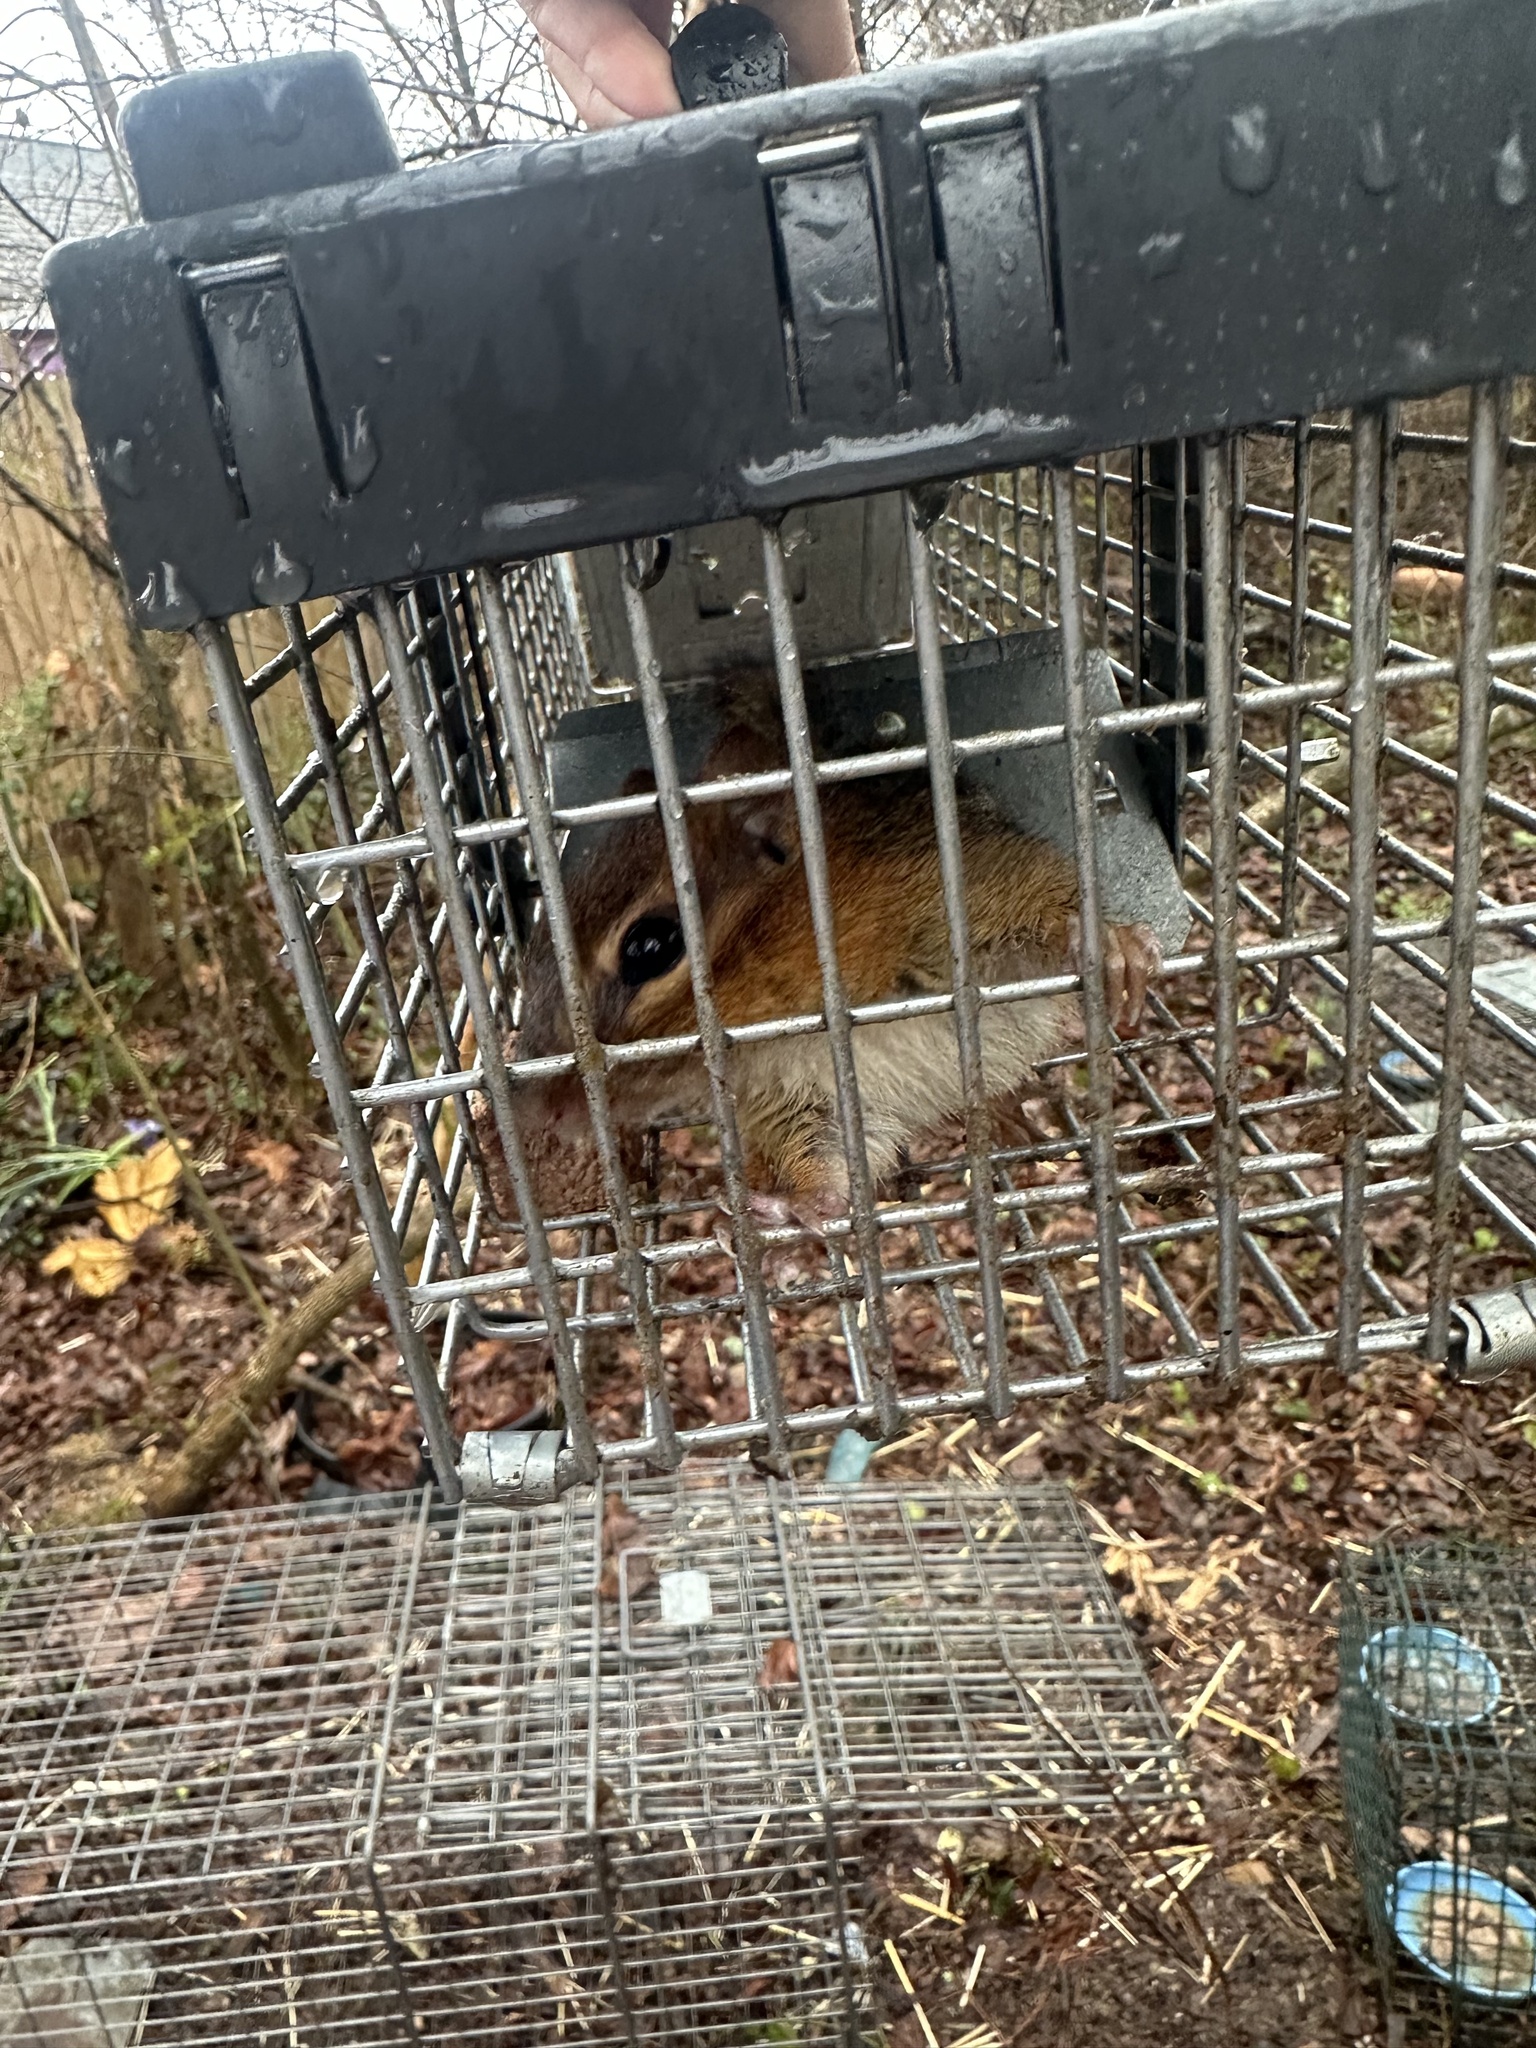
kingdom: Animalia
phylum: Chordata
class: Mammalia
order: Rodentia
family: Sciuridae
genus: Tamias
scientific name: Tamias striatus
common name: Eastern chipmunk
